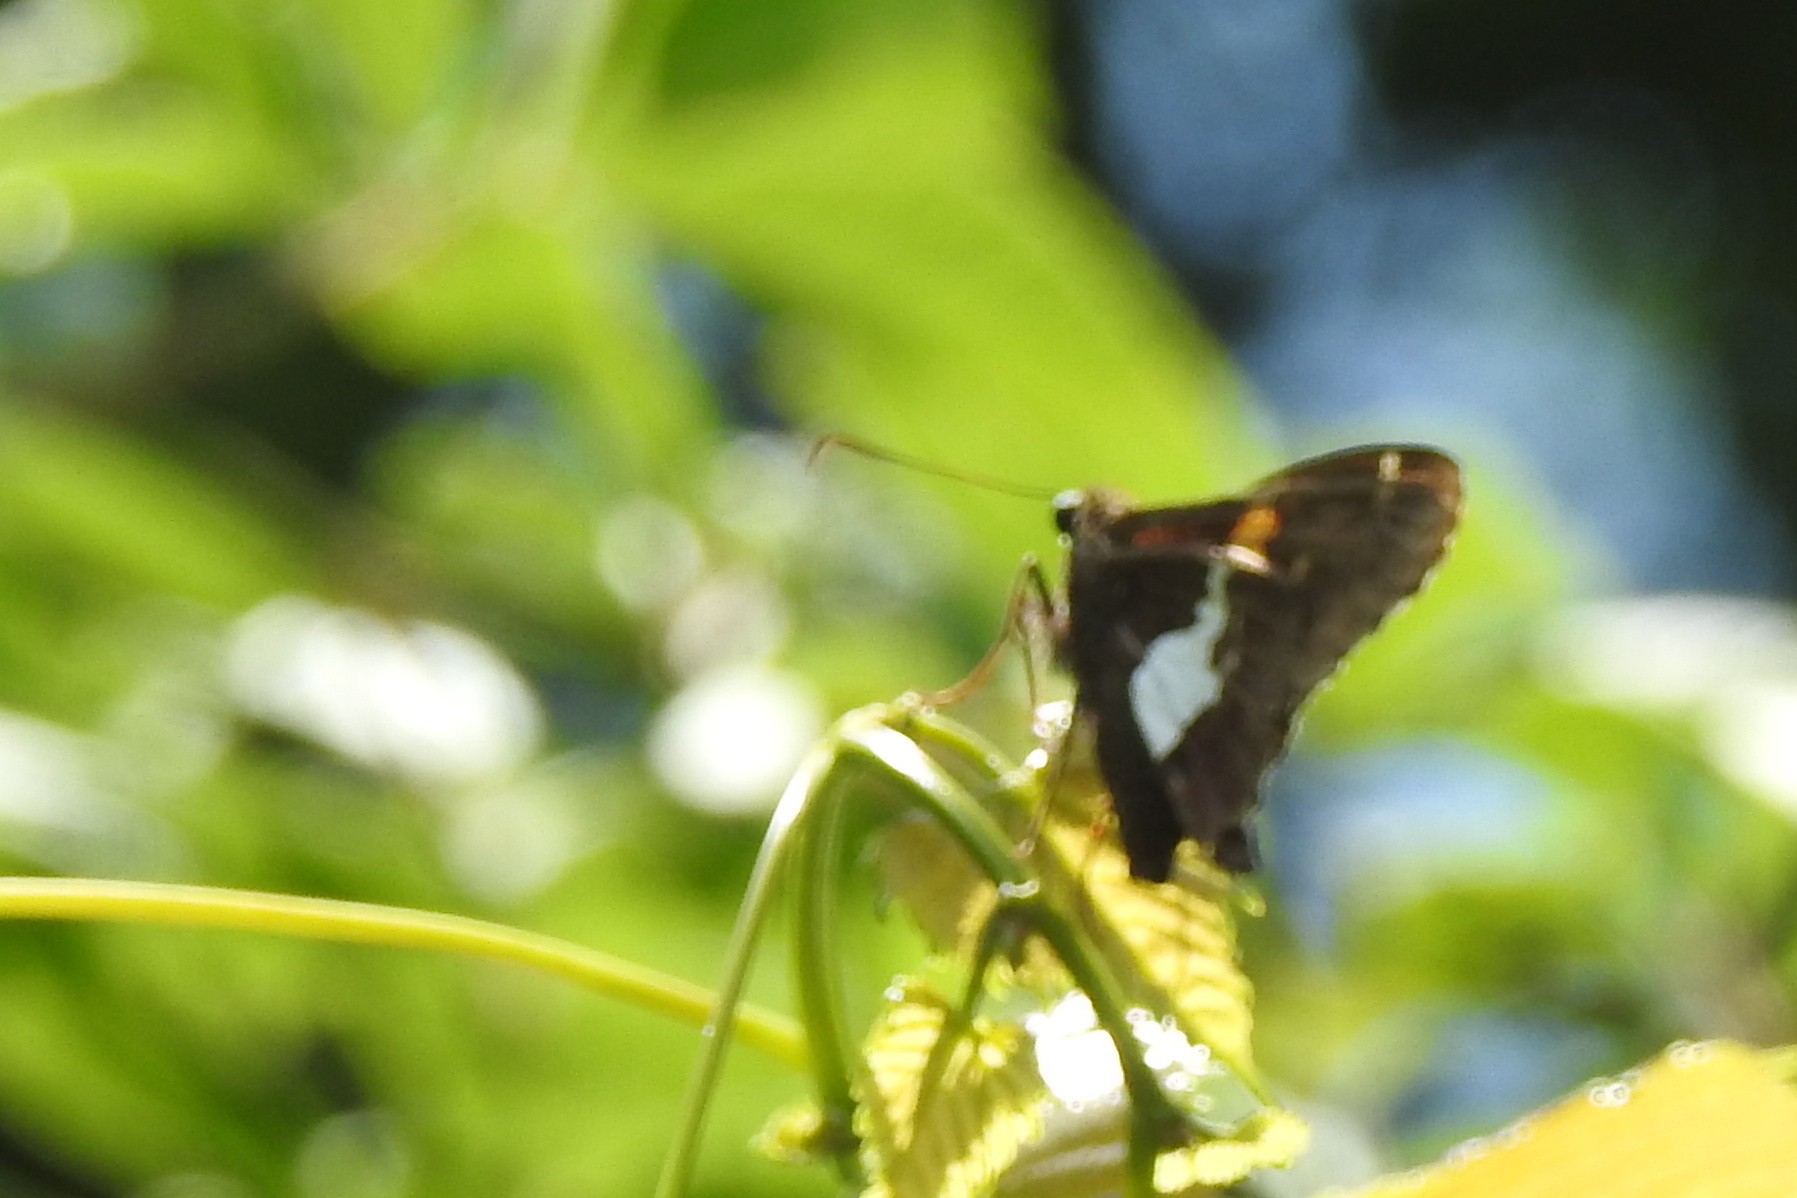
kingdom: Animalia
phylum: Arthropoda
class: Insecta
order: Lepidoptera
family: Hesperiidae
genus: Epargyreus
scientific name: Epargyreus clarus
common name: Silver-spotted skipper
